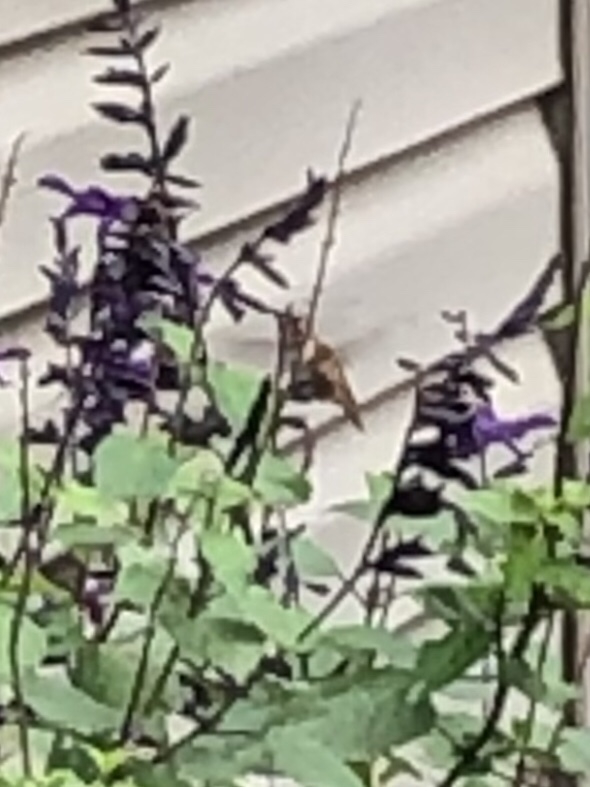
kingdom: Animalia
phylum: Chordata
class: Aves
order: Apodiformes
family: Trochilidae
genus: Selasphorus
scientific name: Selasphorus rufus
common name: Rufous hummingbird
